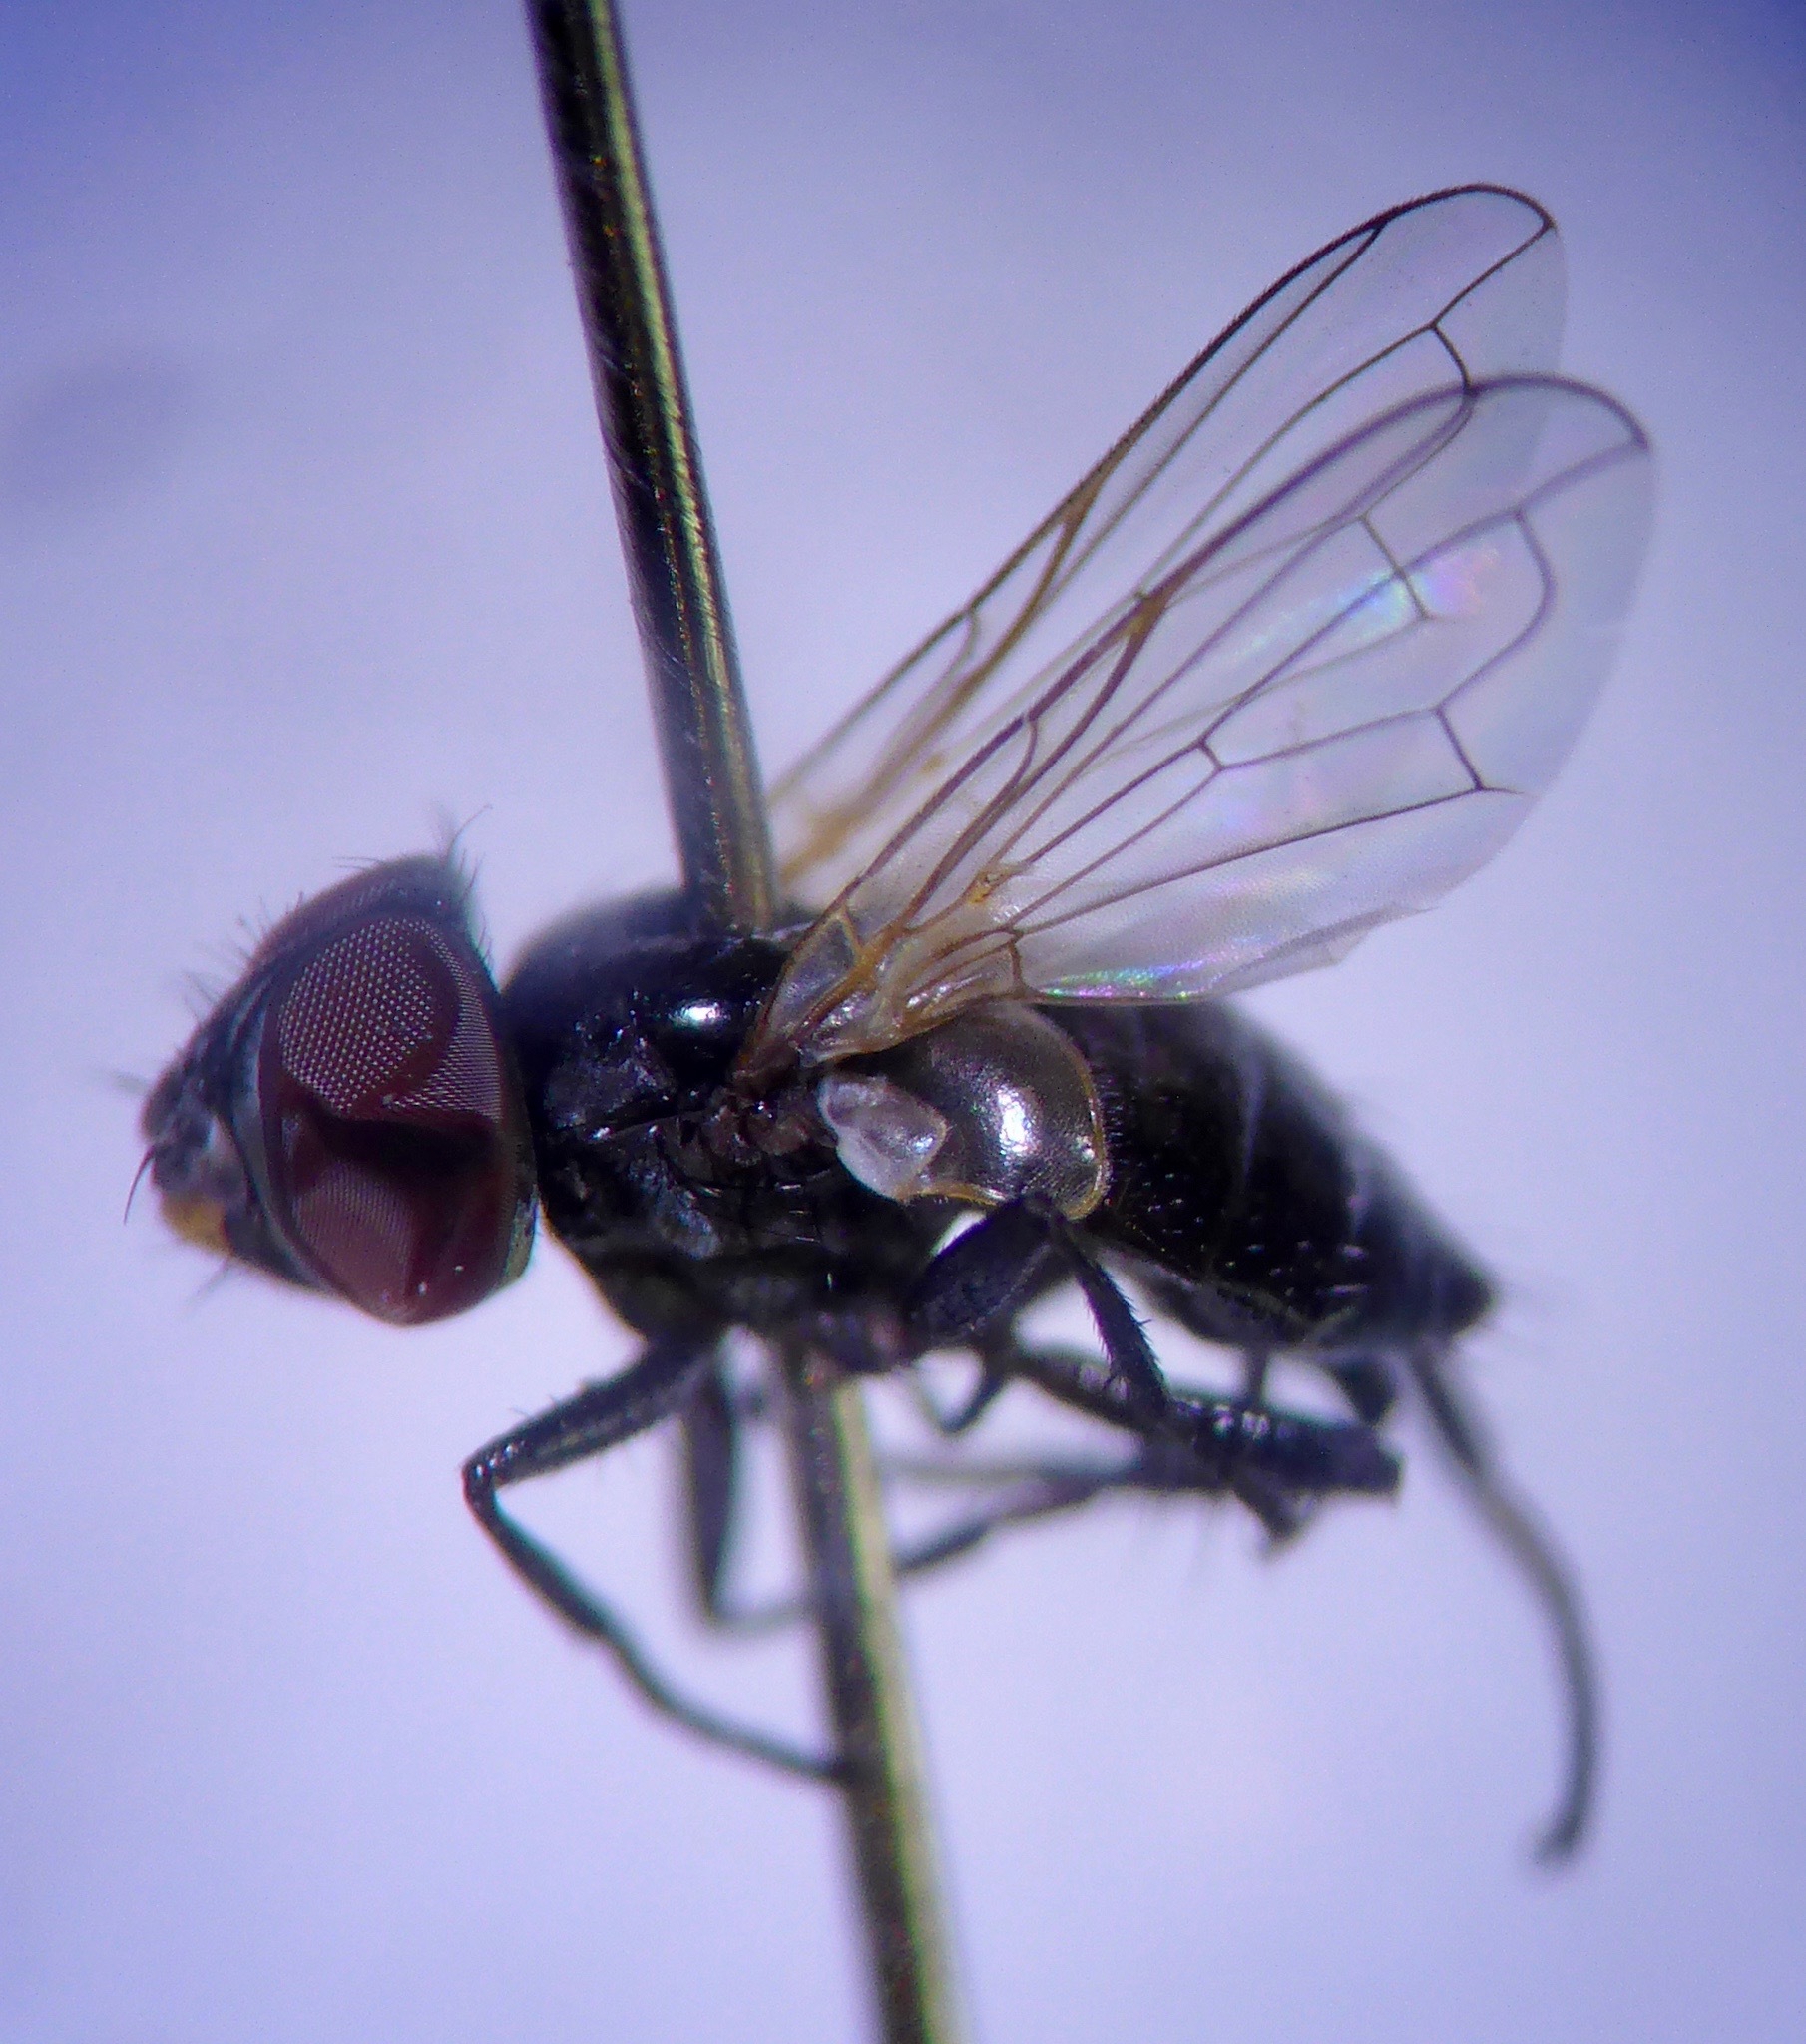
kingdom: Animalia
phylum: Arthropoda
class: Insecta
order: Diptera
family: Tachinidae
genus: Phasia
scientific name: Phasia campbelli
